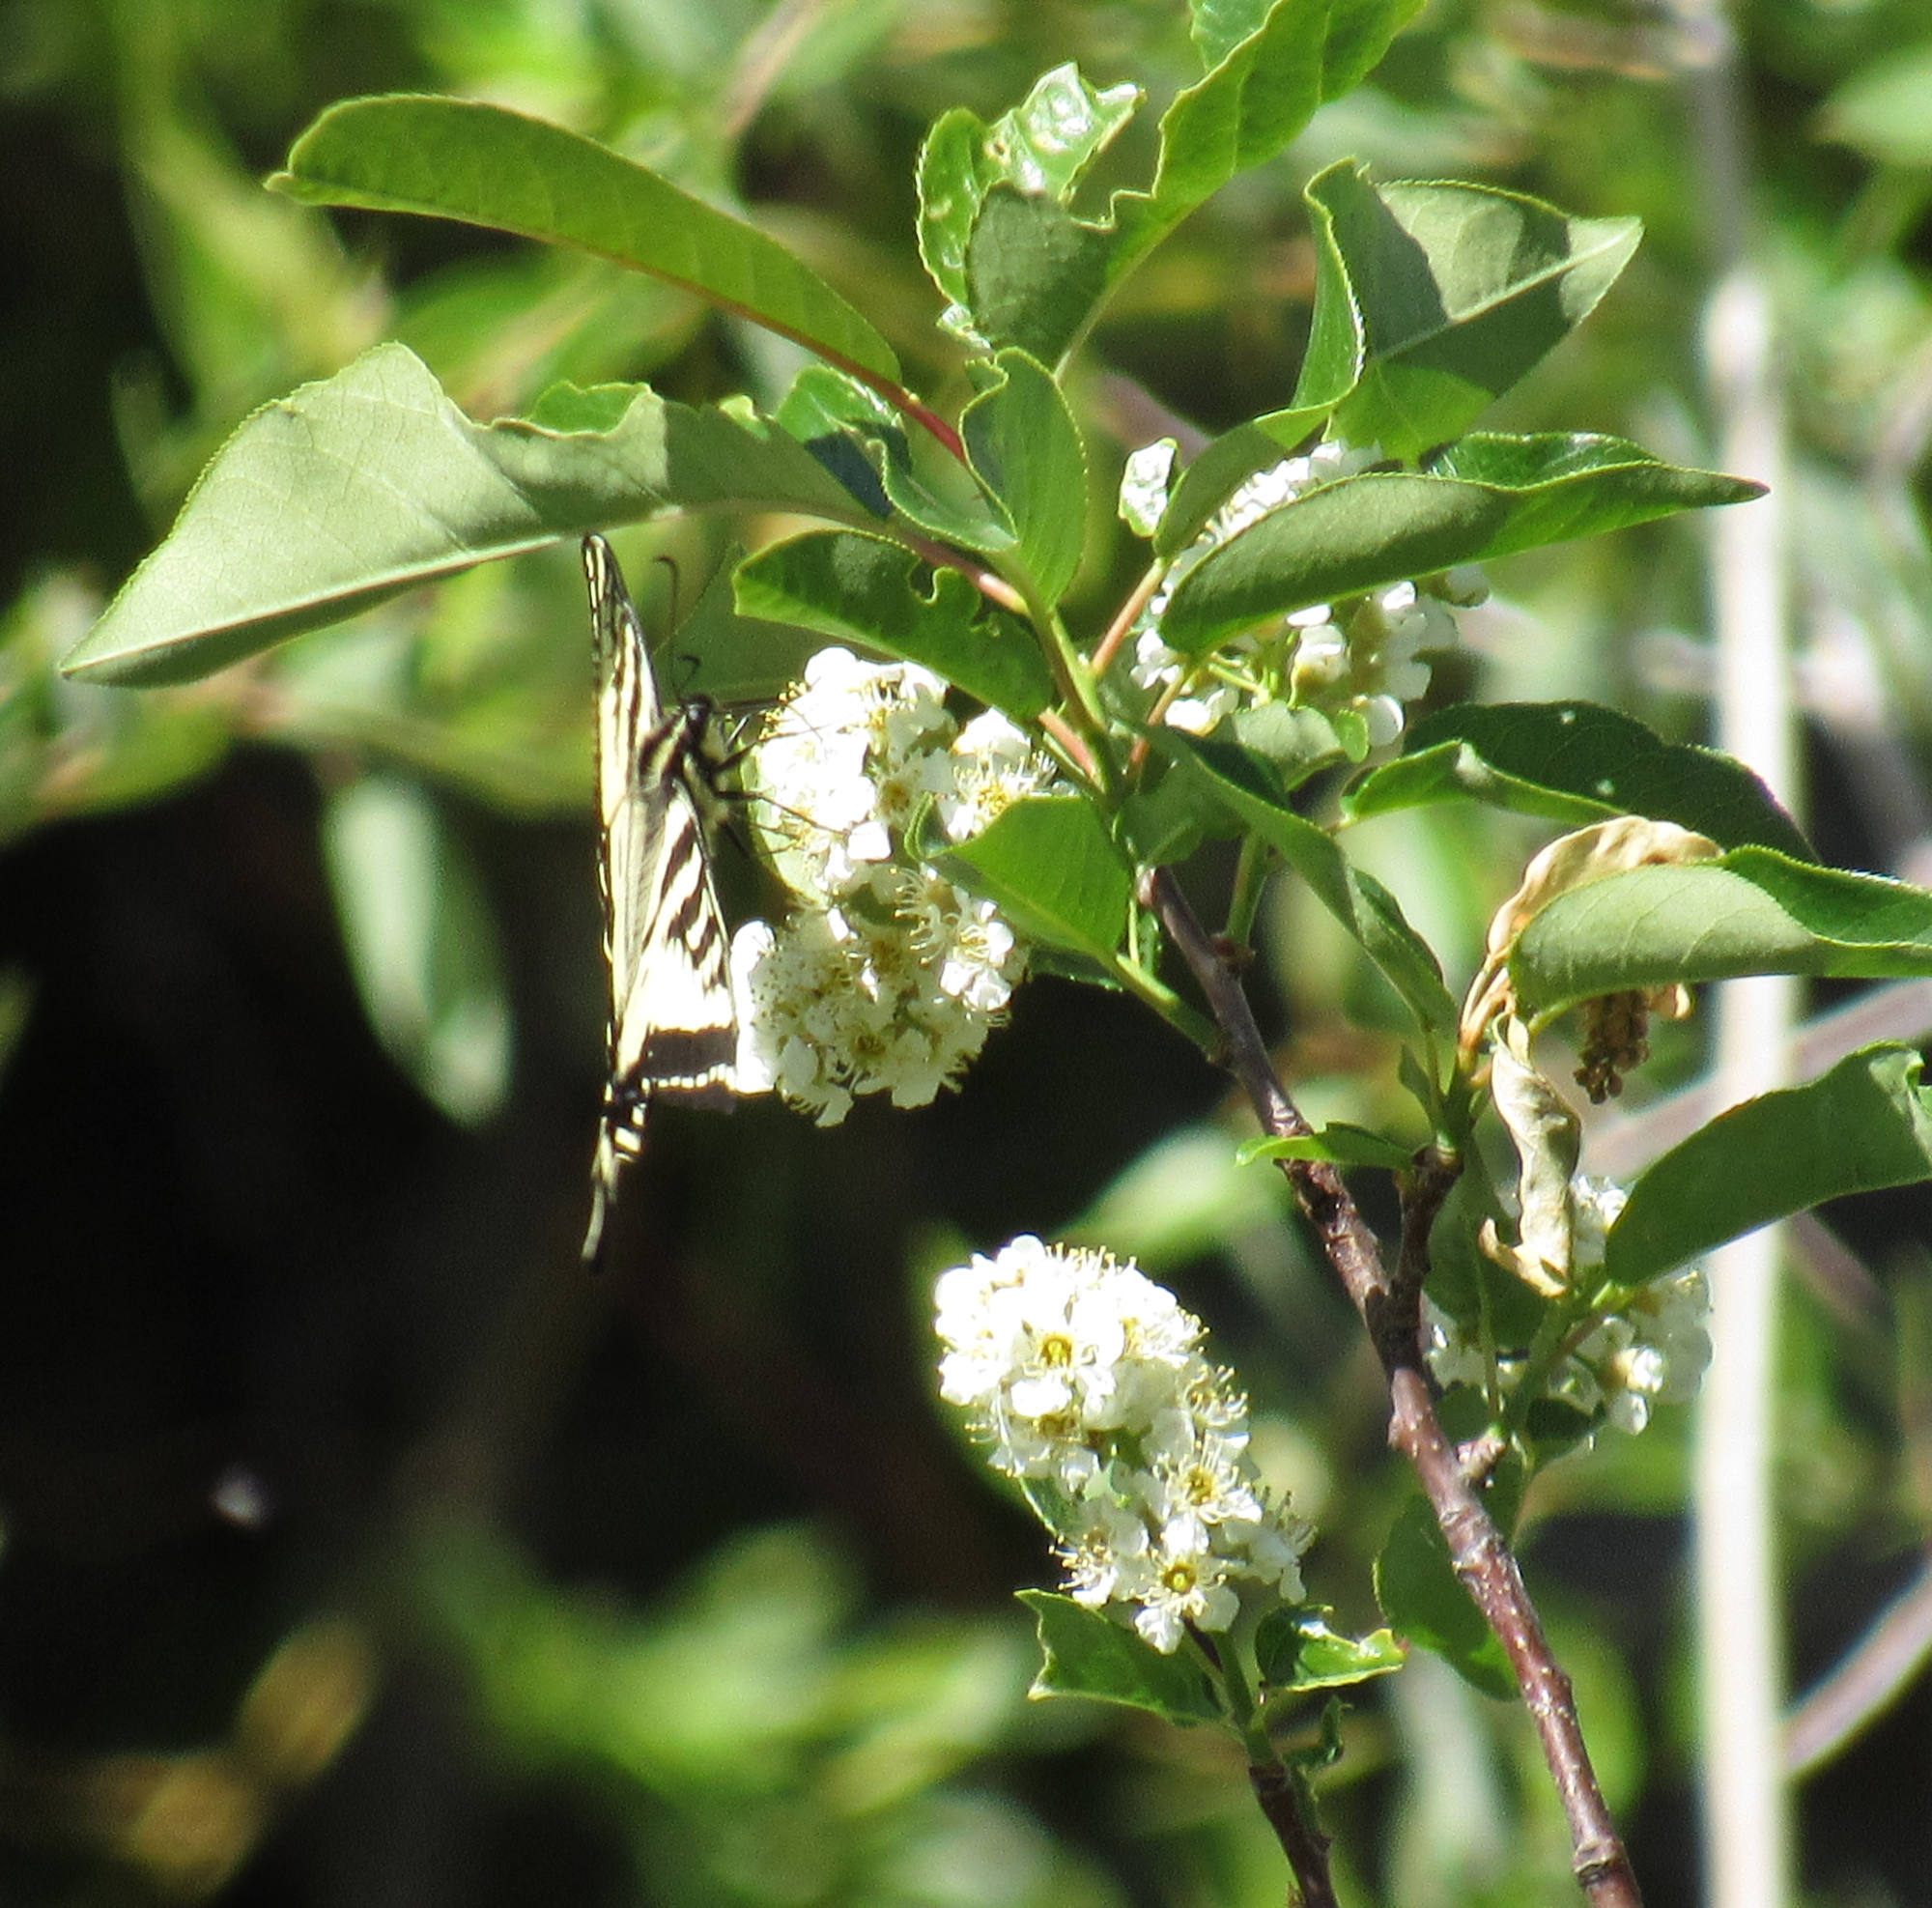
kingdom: Animalia
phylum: Arthropoda
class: Insecta
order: Lepidoptera
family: Papilionidae
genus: Papilio
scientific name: Papilio rutulus
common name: Western tiger swallowtail
